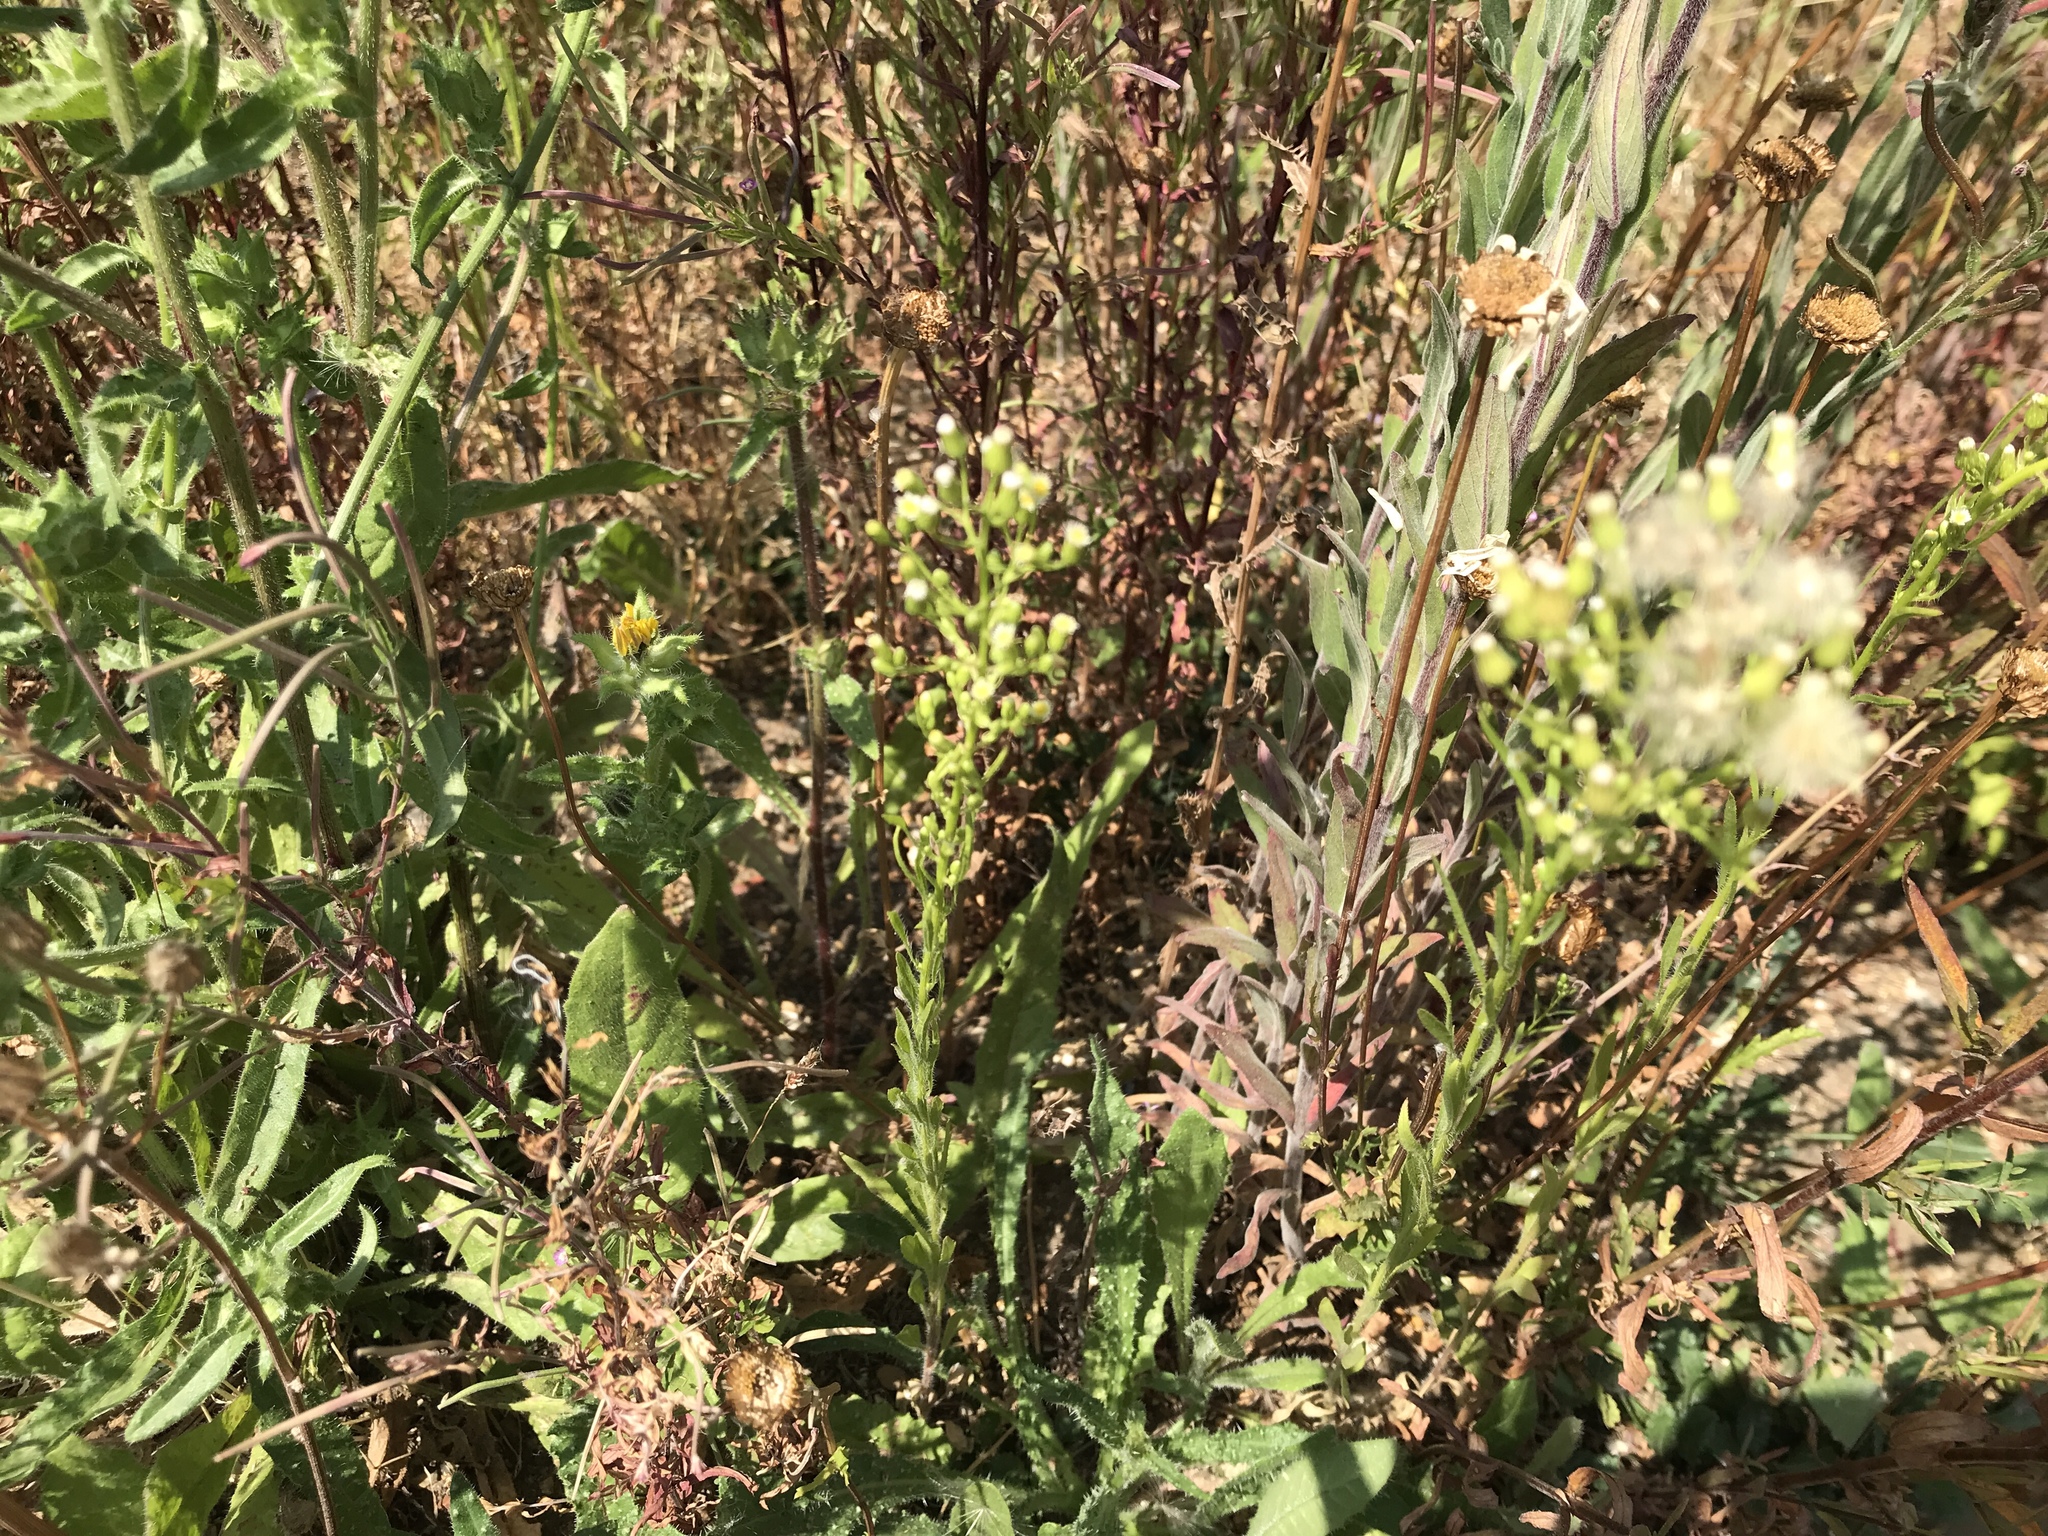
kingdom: Plantae
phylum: Tracheophyta
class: Magnoliopsida
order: Asterales
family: Asteraceae
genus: Erigeron
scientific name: Erigeron canadensis
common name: Canadian fleabane
